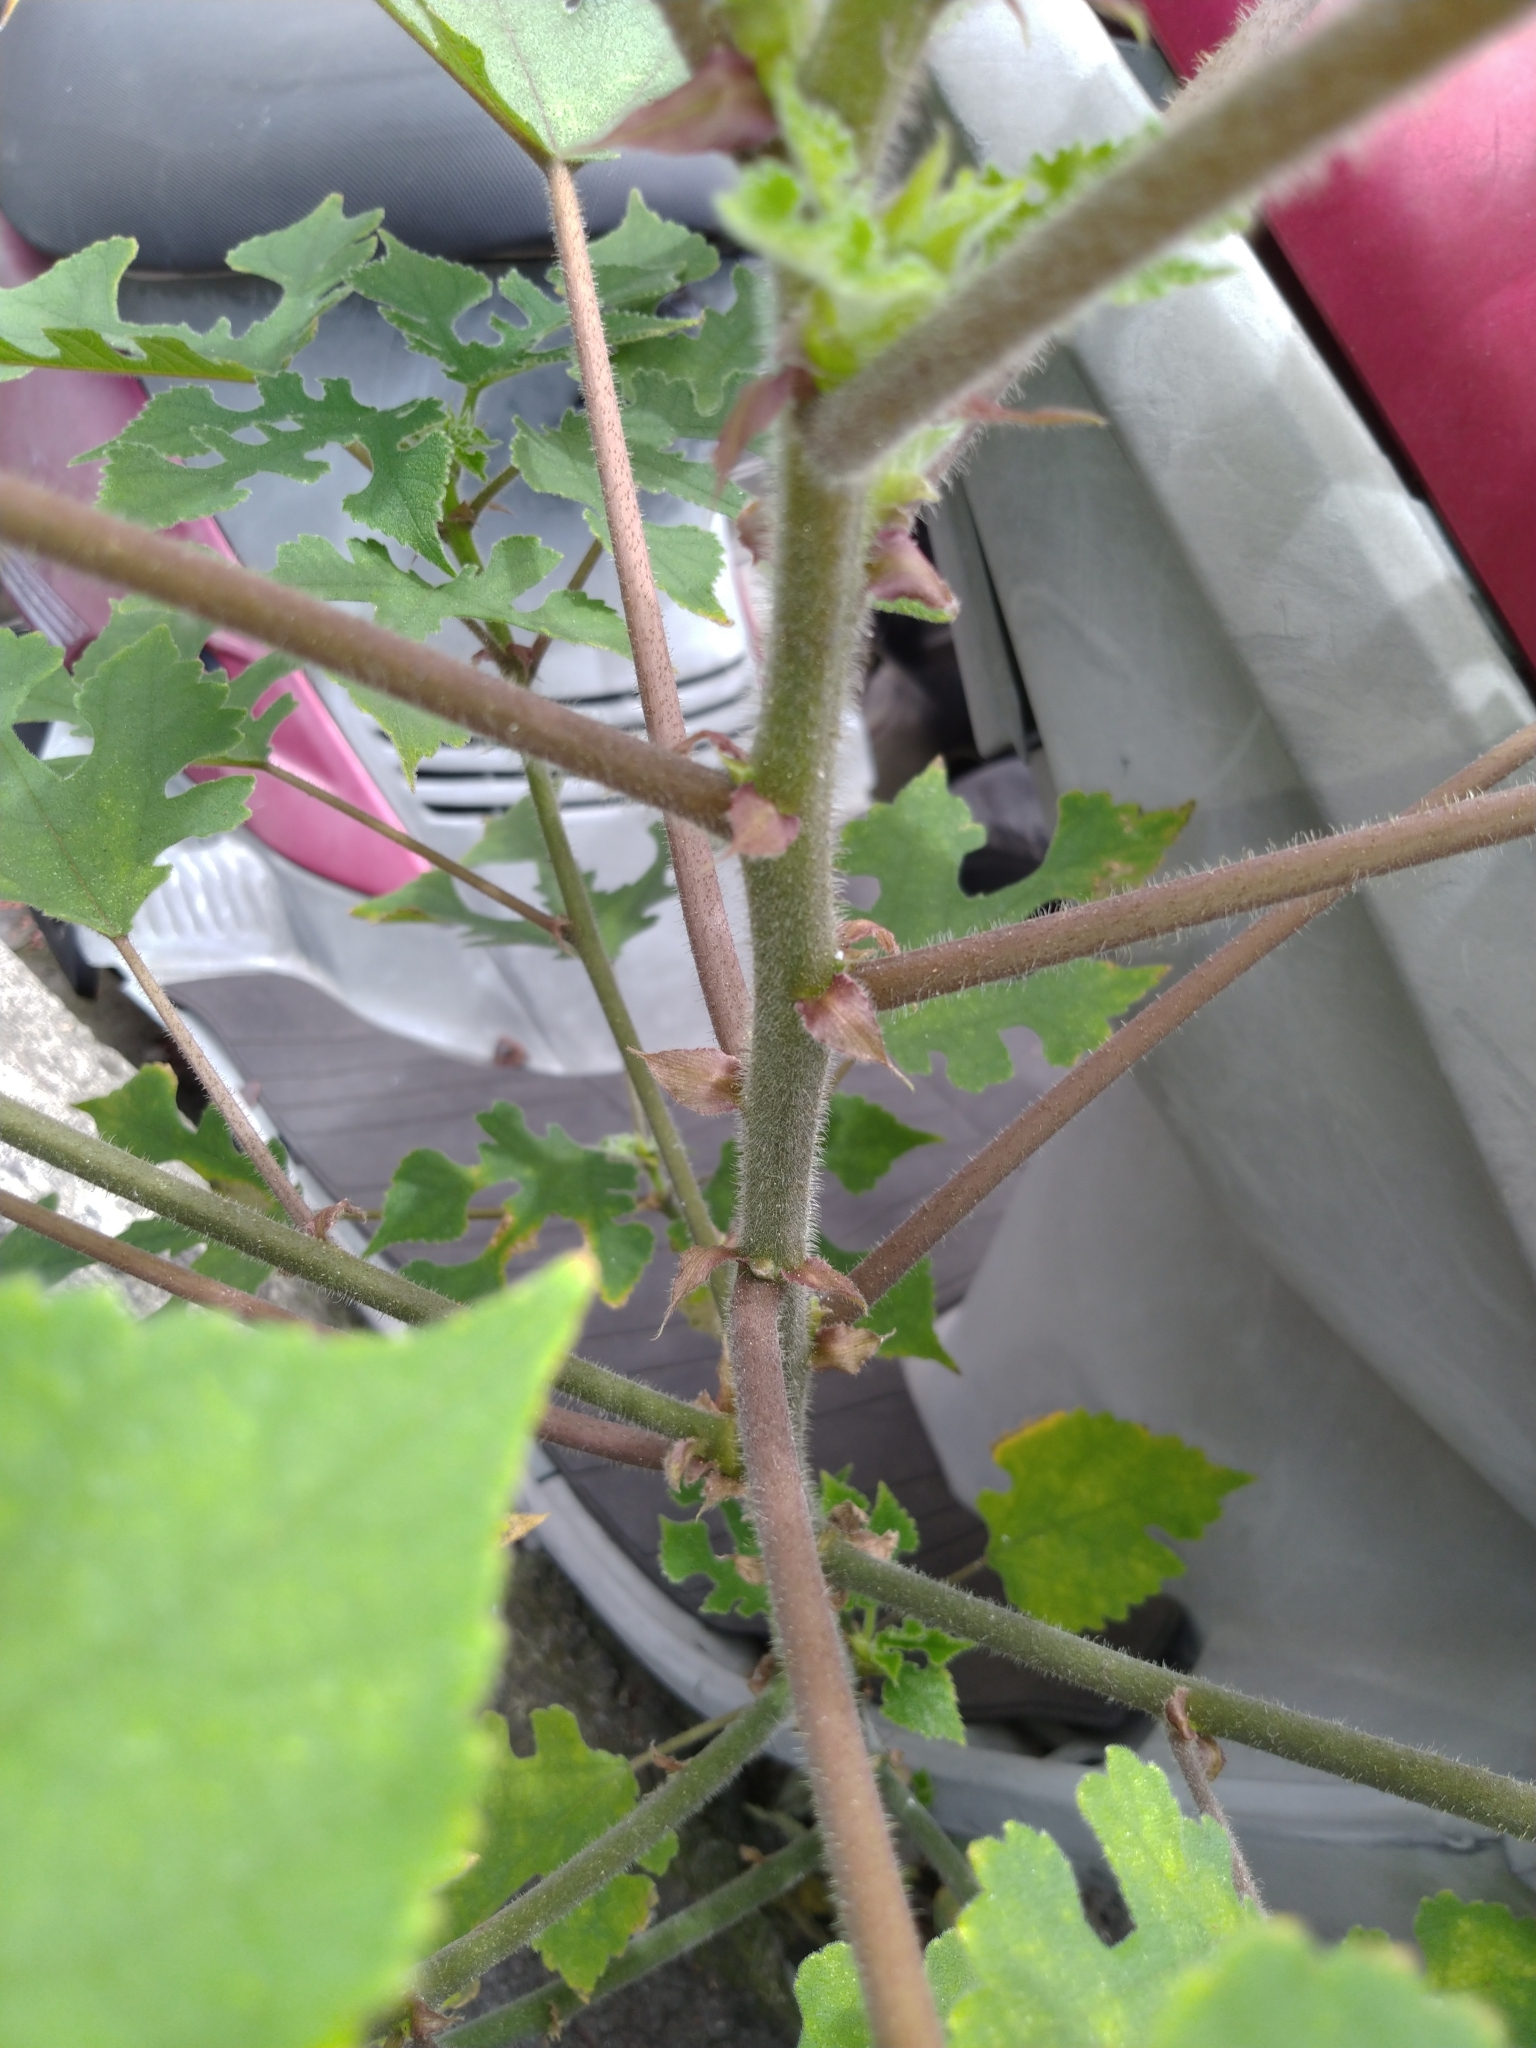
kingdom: Plantae
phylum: Tracheophyta
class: Magnoliopsida
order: Rosales
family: Moraceae
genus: Broussonetia
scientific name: Broussonetia papyrifera
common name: Paper mulberry
